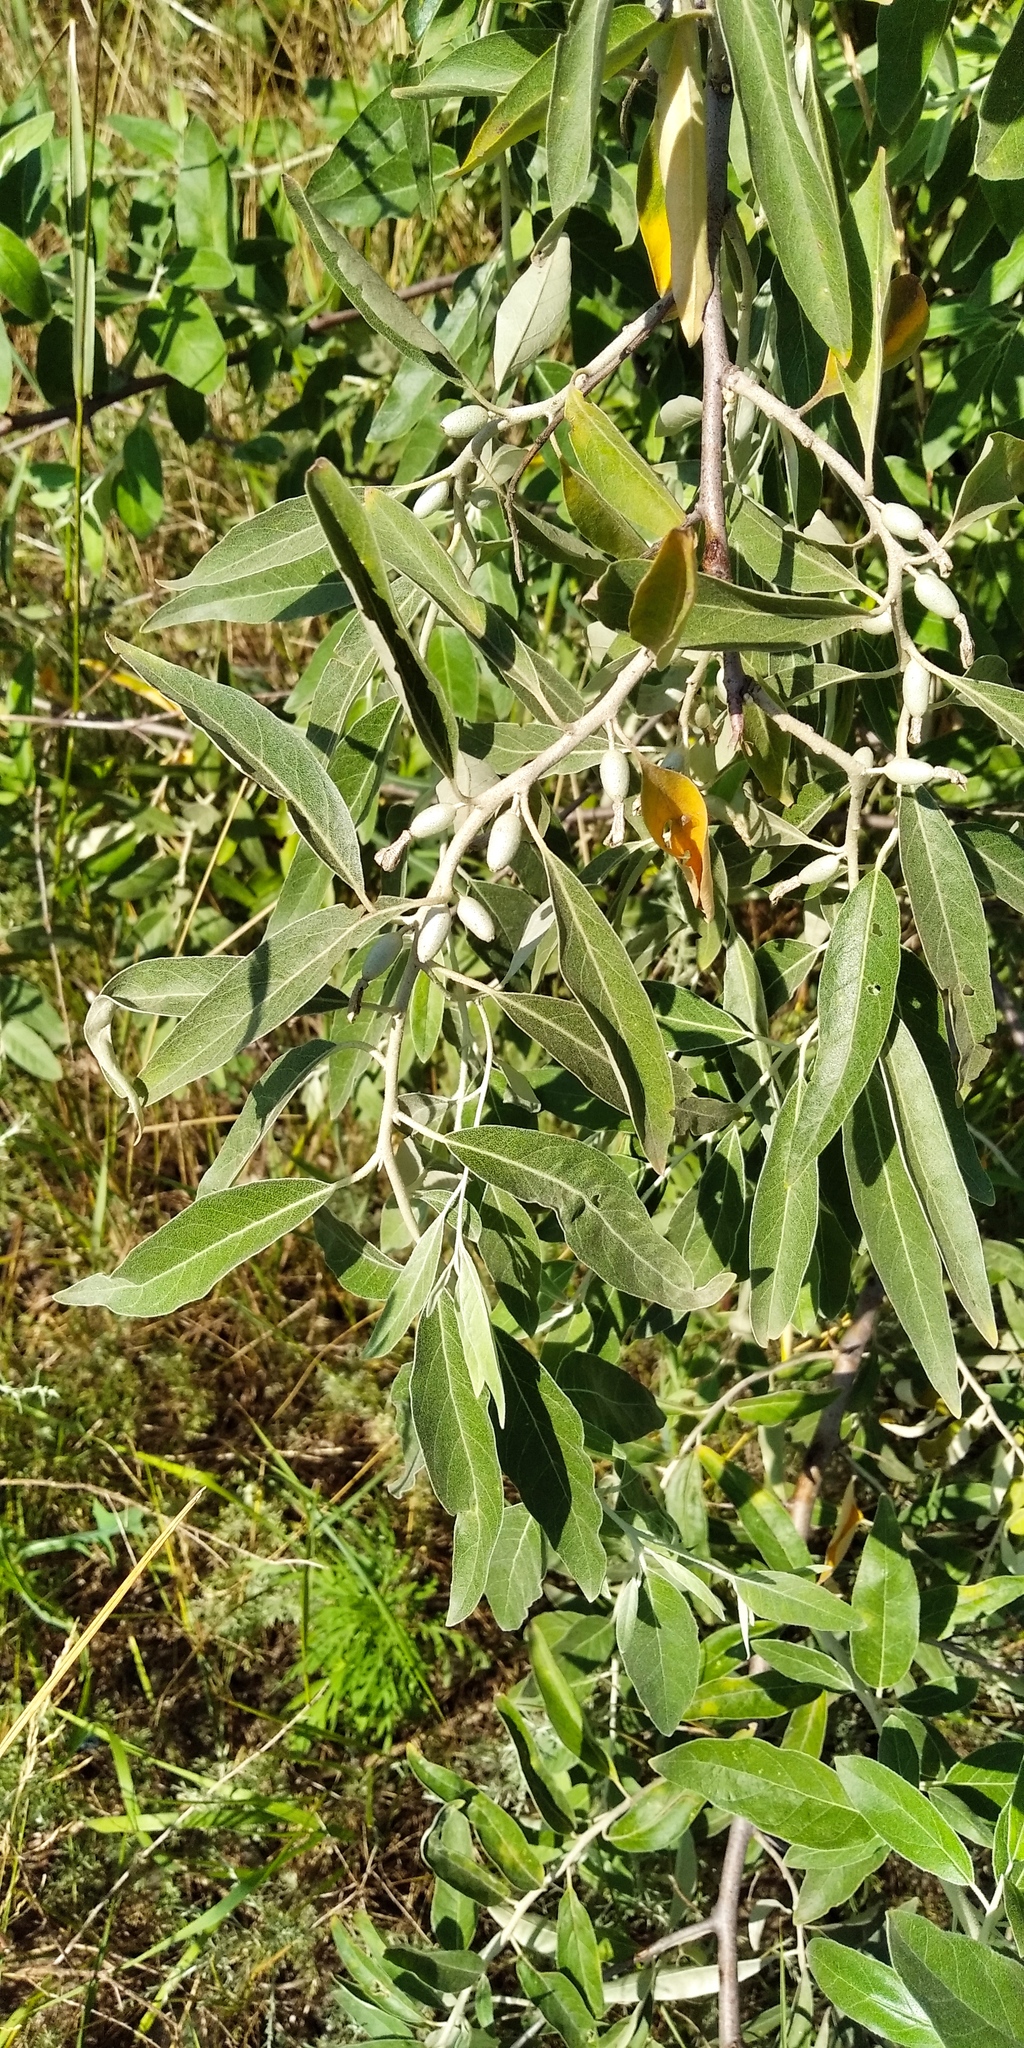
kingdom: Plantae
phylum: Tracheophyta
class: Magnoliopsida
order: Rosales
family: Elaeagnaceae
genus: Elaeagnus
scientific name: Elaeagnus angustifolia
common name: Russian olive
